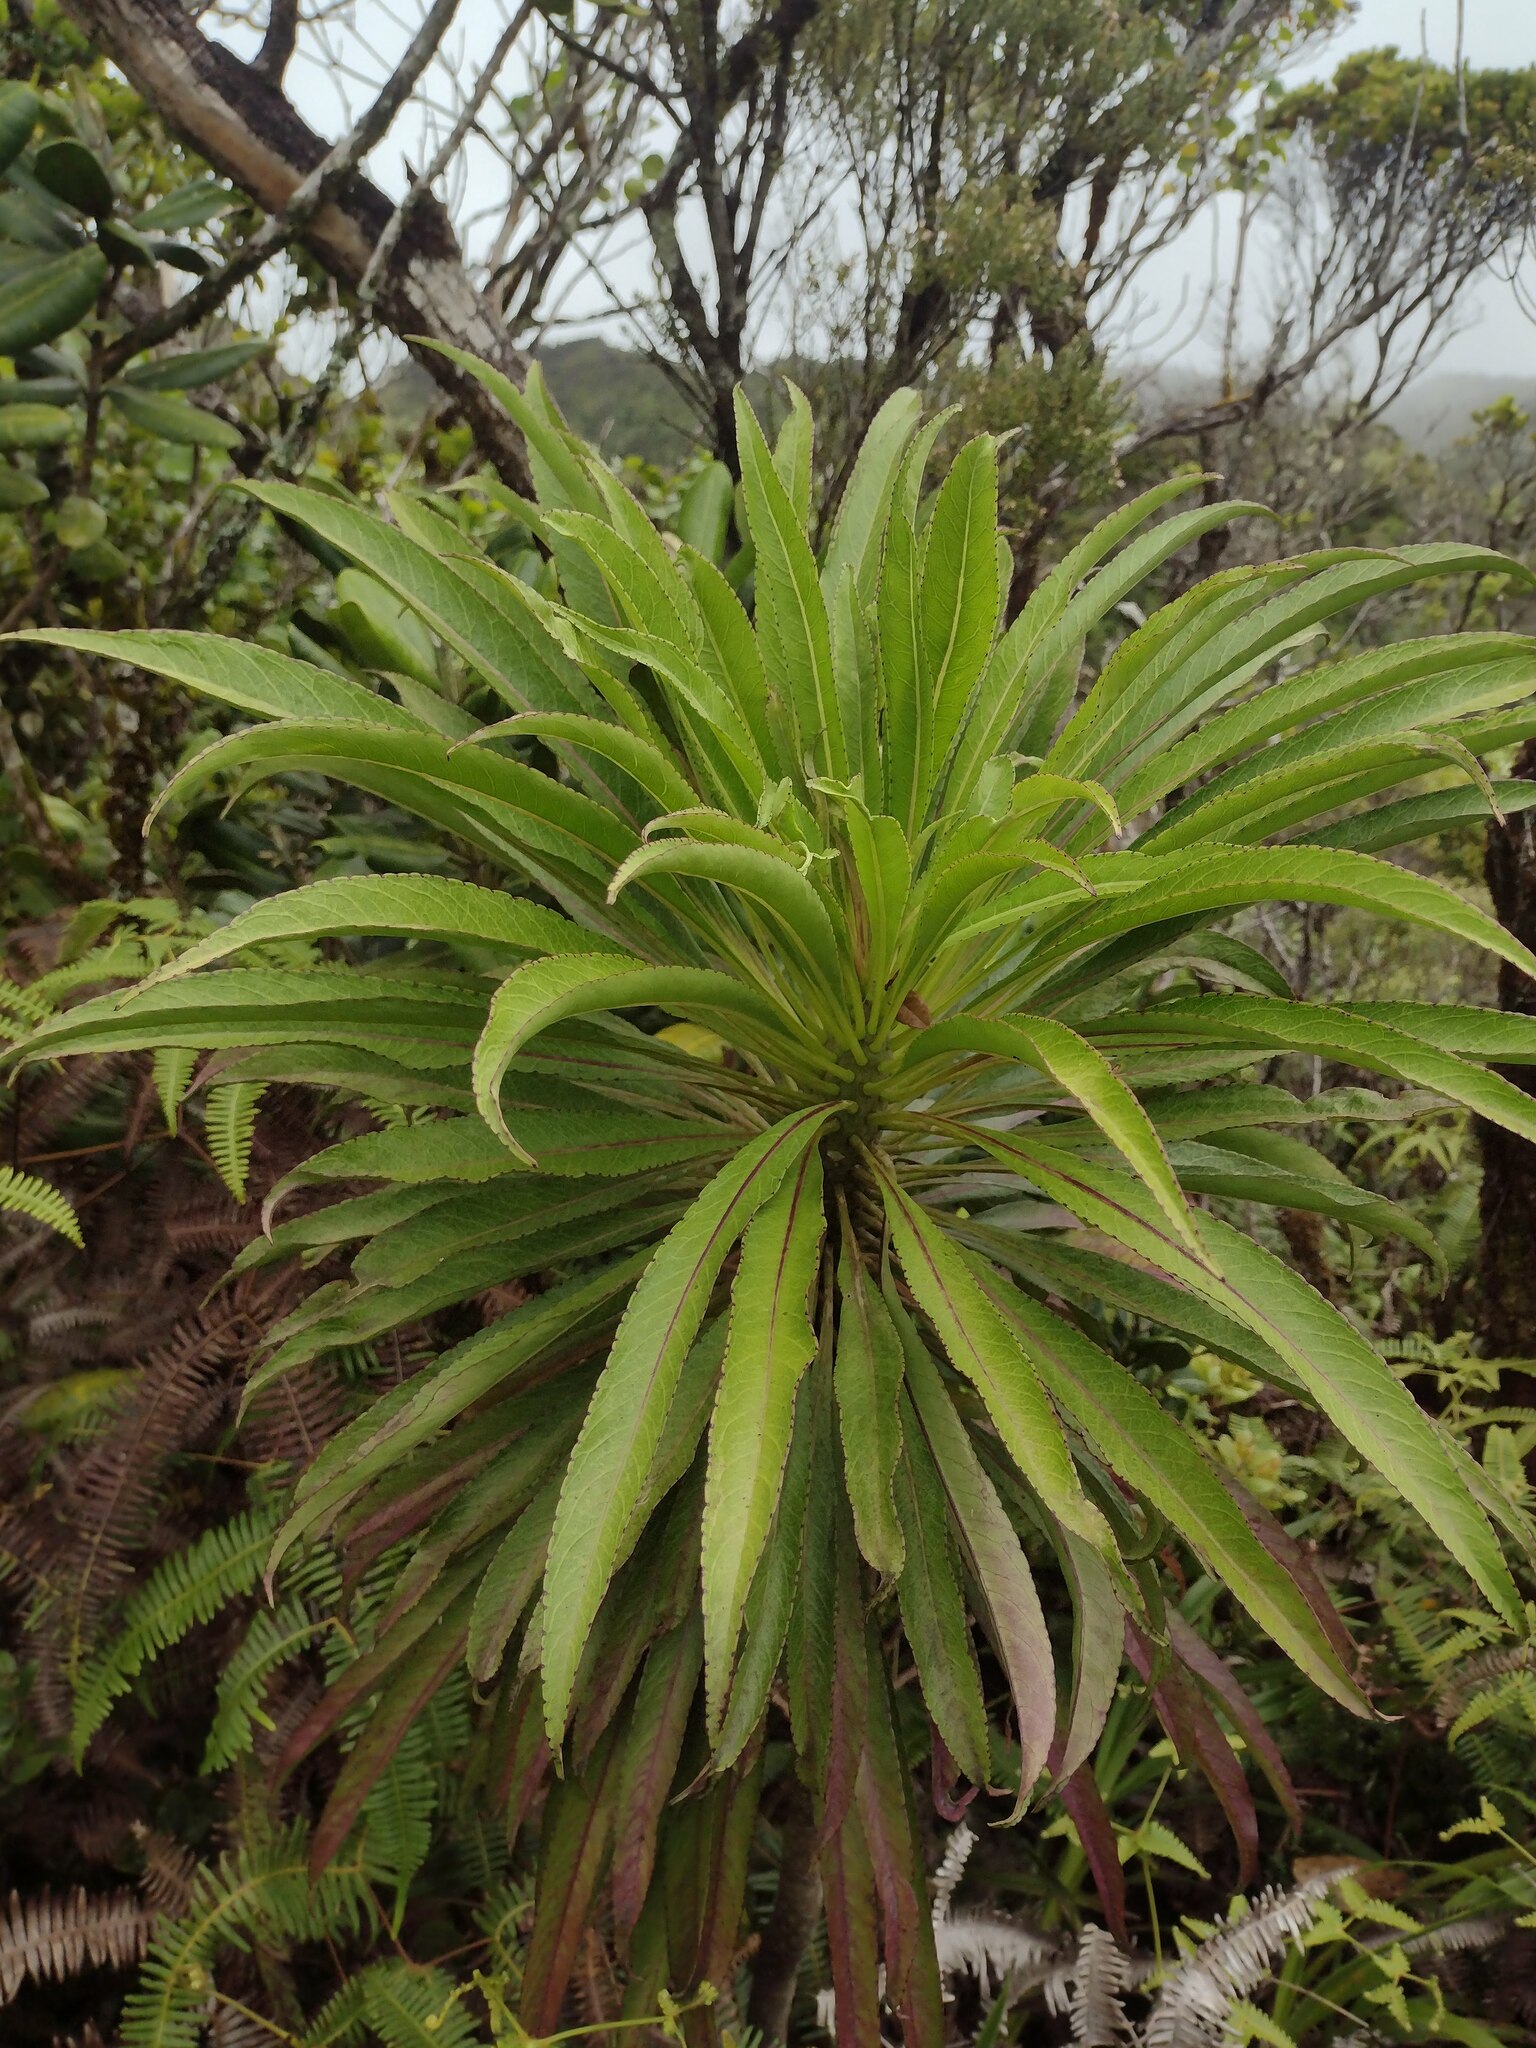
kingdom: Plantae
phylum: Tracheophyta
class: Magnoliopsida
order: Asterales
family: Campanulaceae
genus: Trematolobelia
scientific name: Trematolobelia kauaiensis
